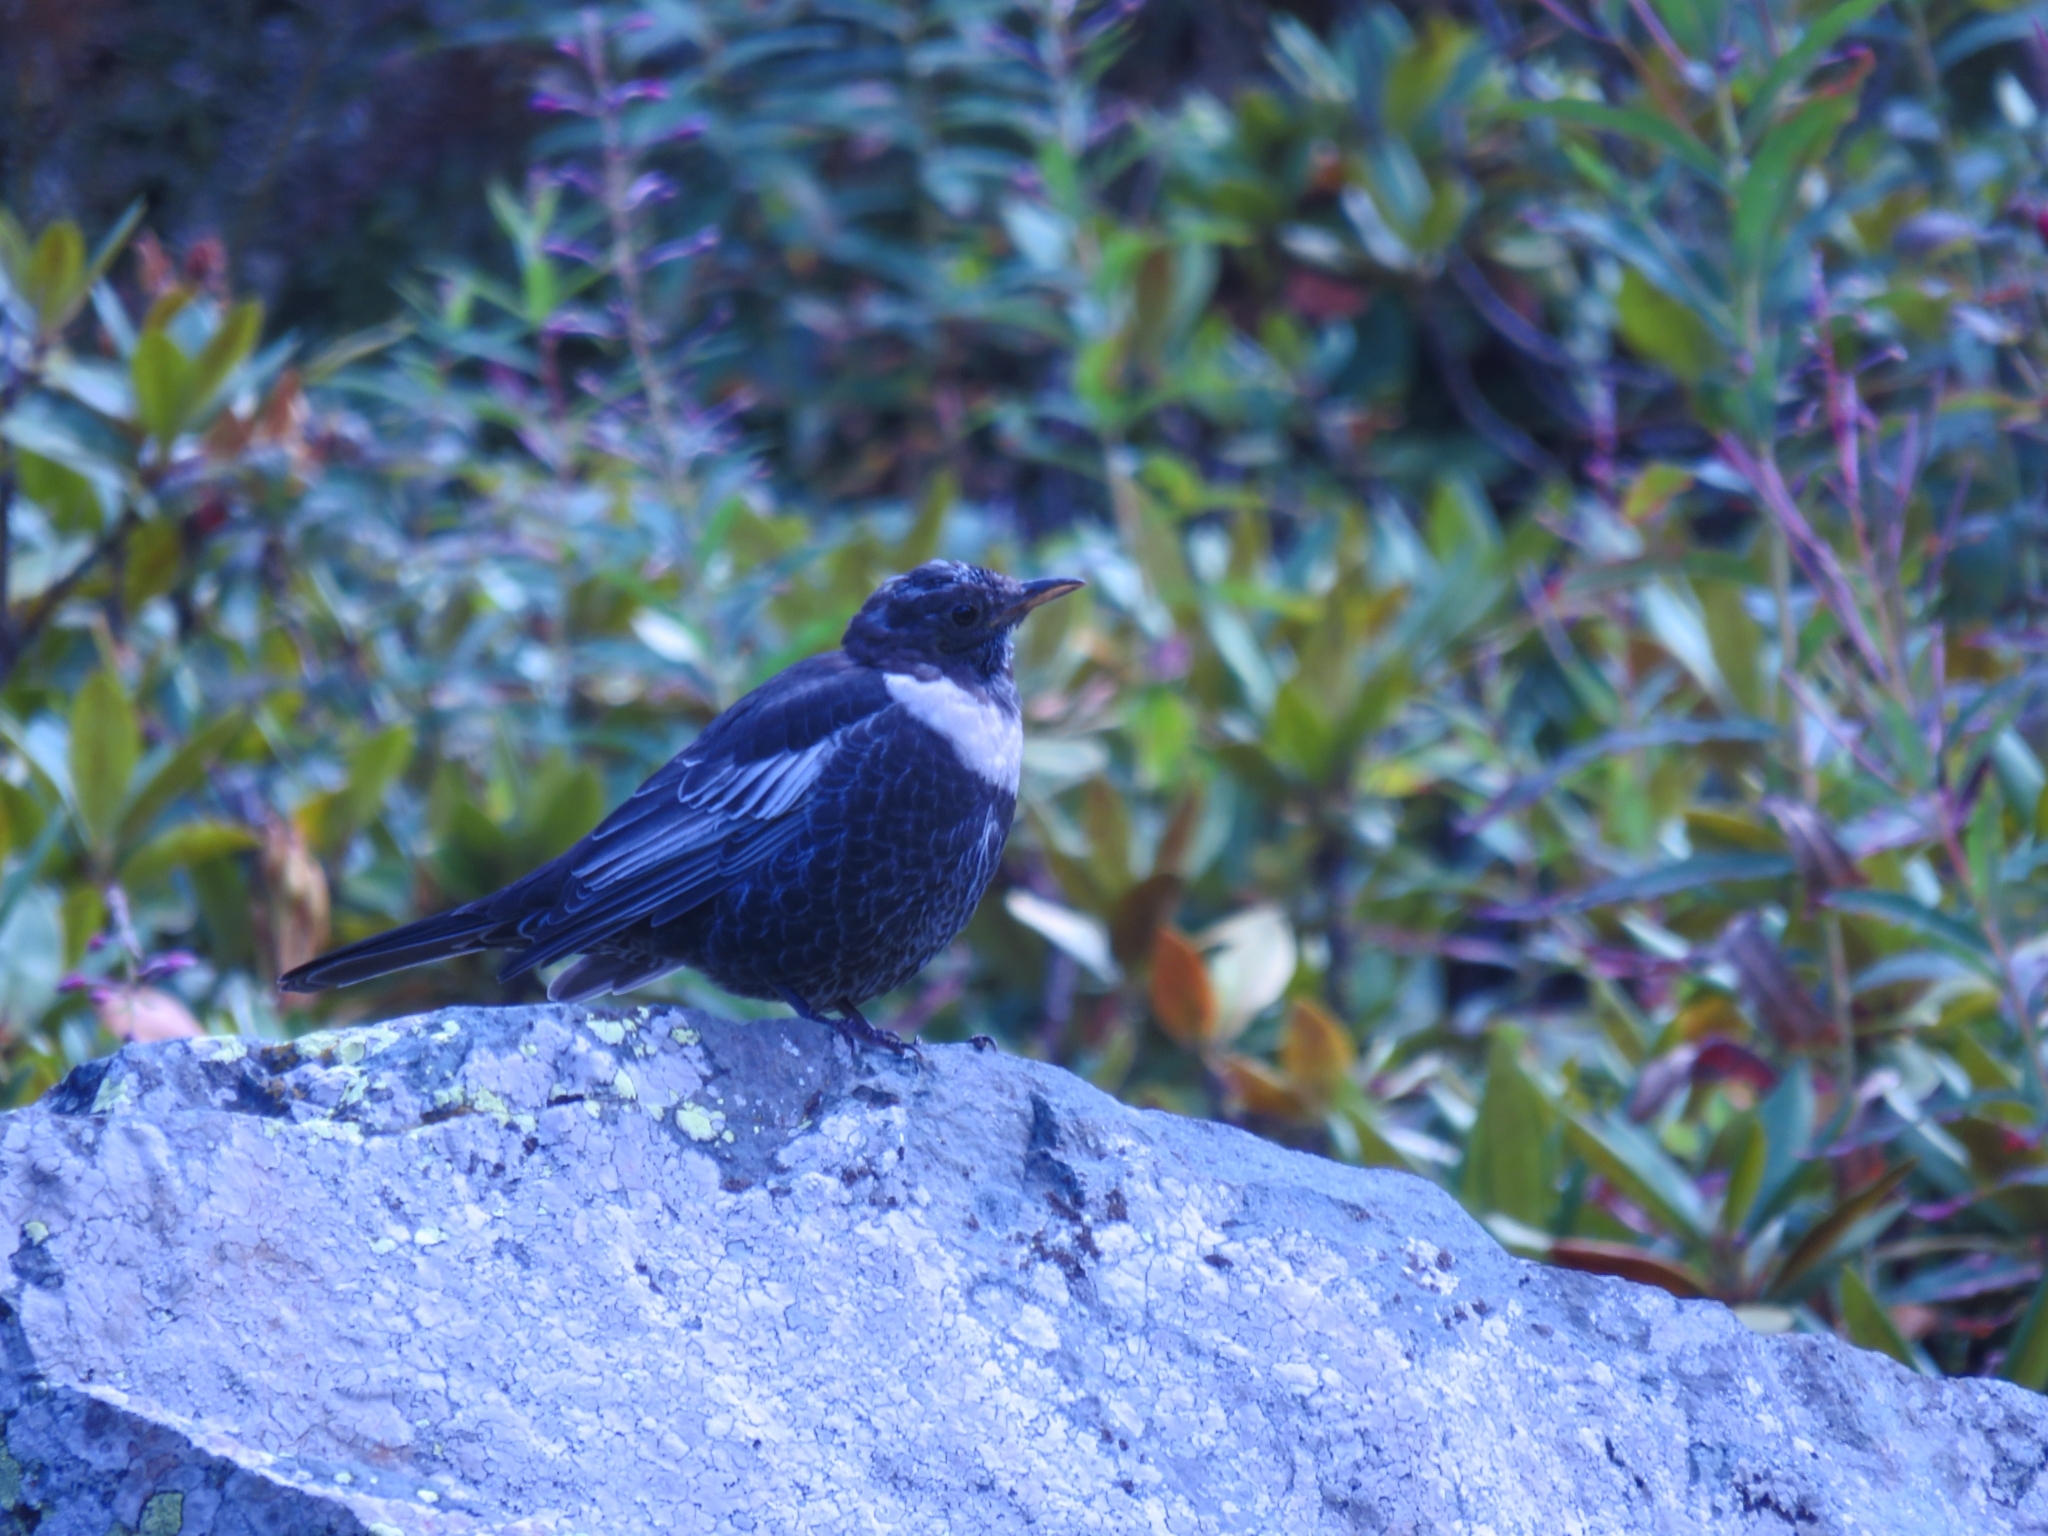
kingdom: Animalia
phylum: Chordata
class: Aves
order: Passeriformes
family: Turdidae
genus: Turdus
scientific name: Turdus torquatus
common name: Ring ouzel
